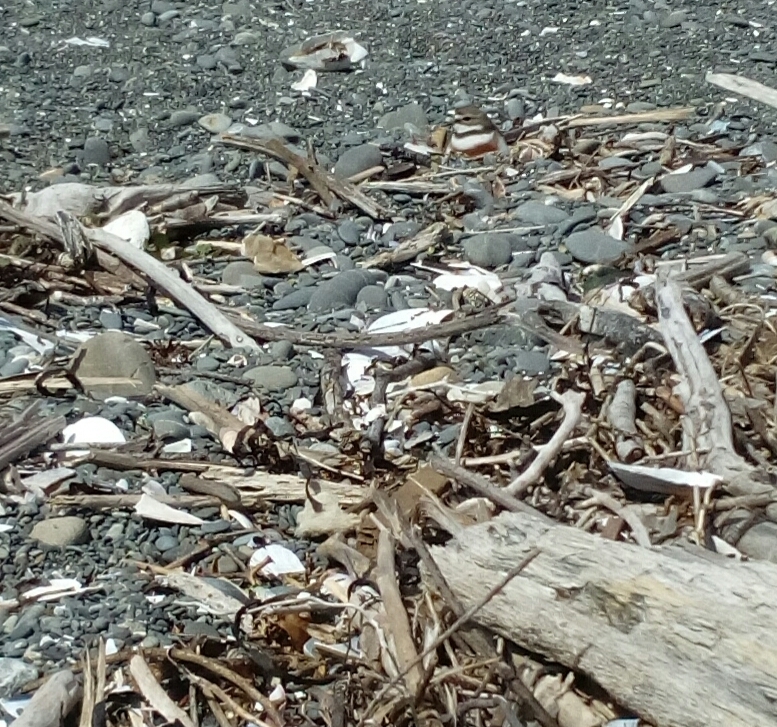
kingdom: Animalia
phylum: Chordata
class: Aves
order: Charadriiformes
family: Charadriidae
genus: Anarhynchus
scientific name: Anarhynchus
